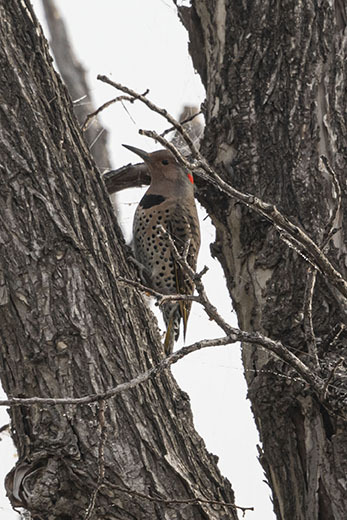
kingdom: Animalia
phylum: Chordata
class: Aves
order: Piciformes
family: Picidae
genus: Colaptes
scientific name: Colaptes auratus
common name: Northern flicker
